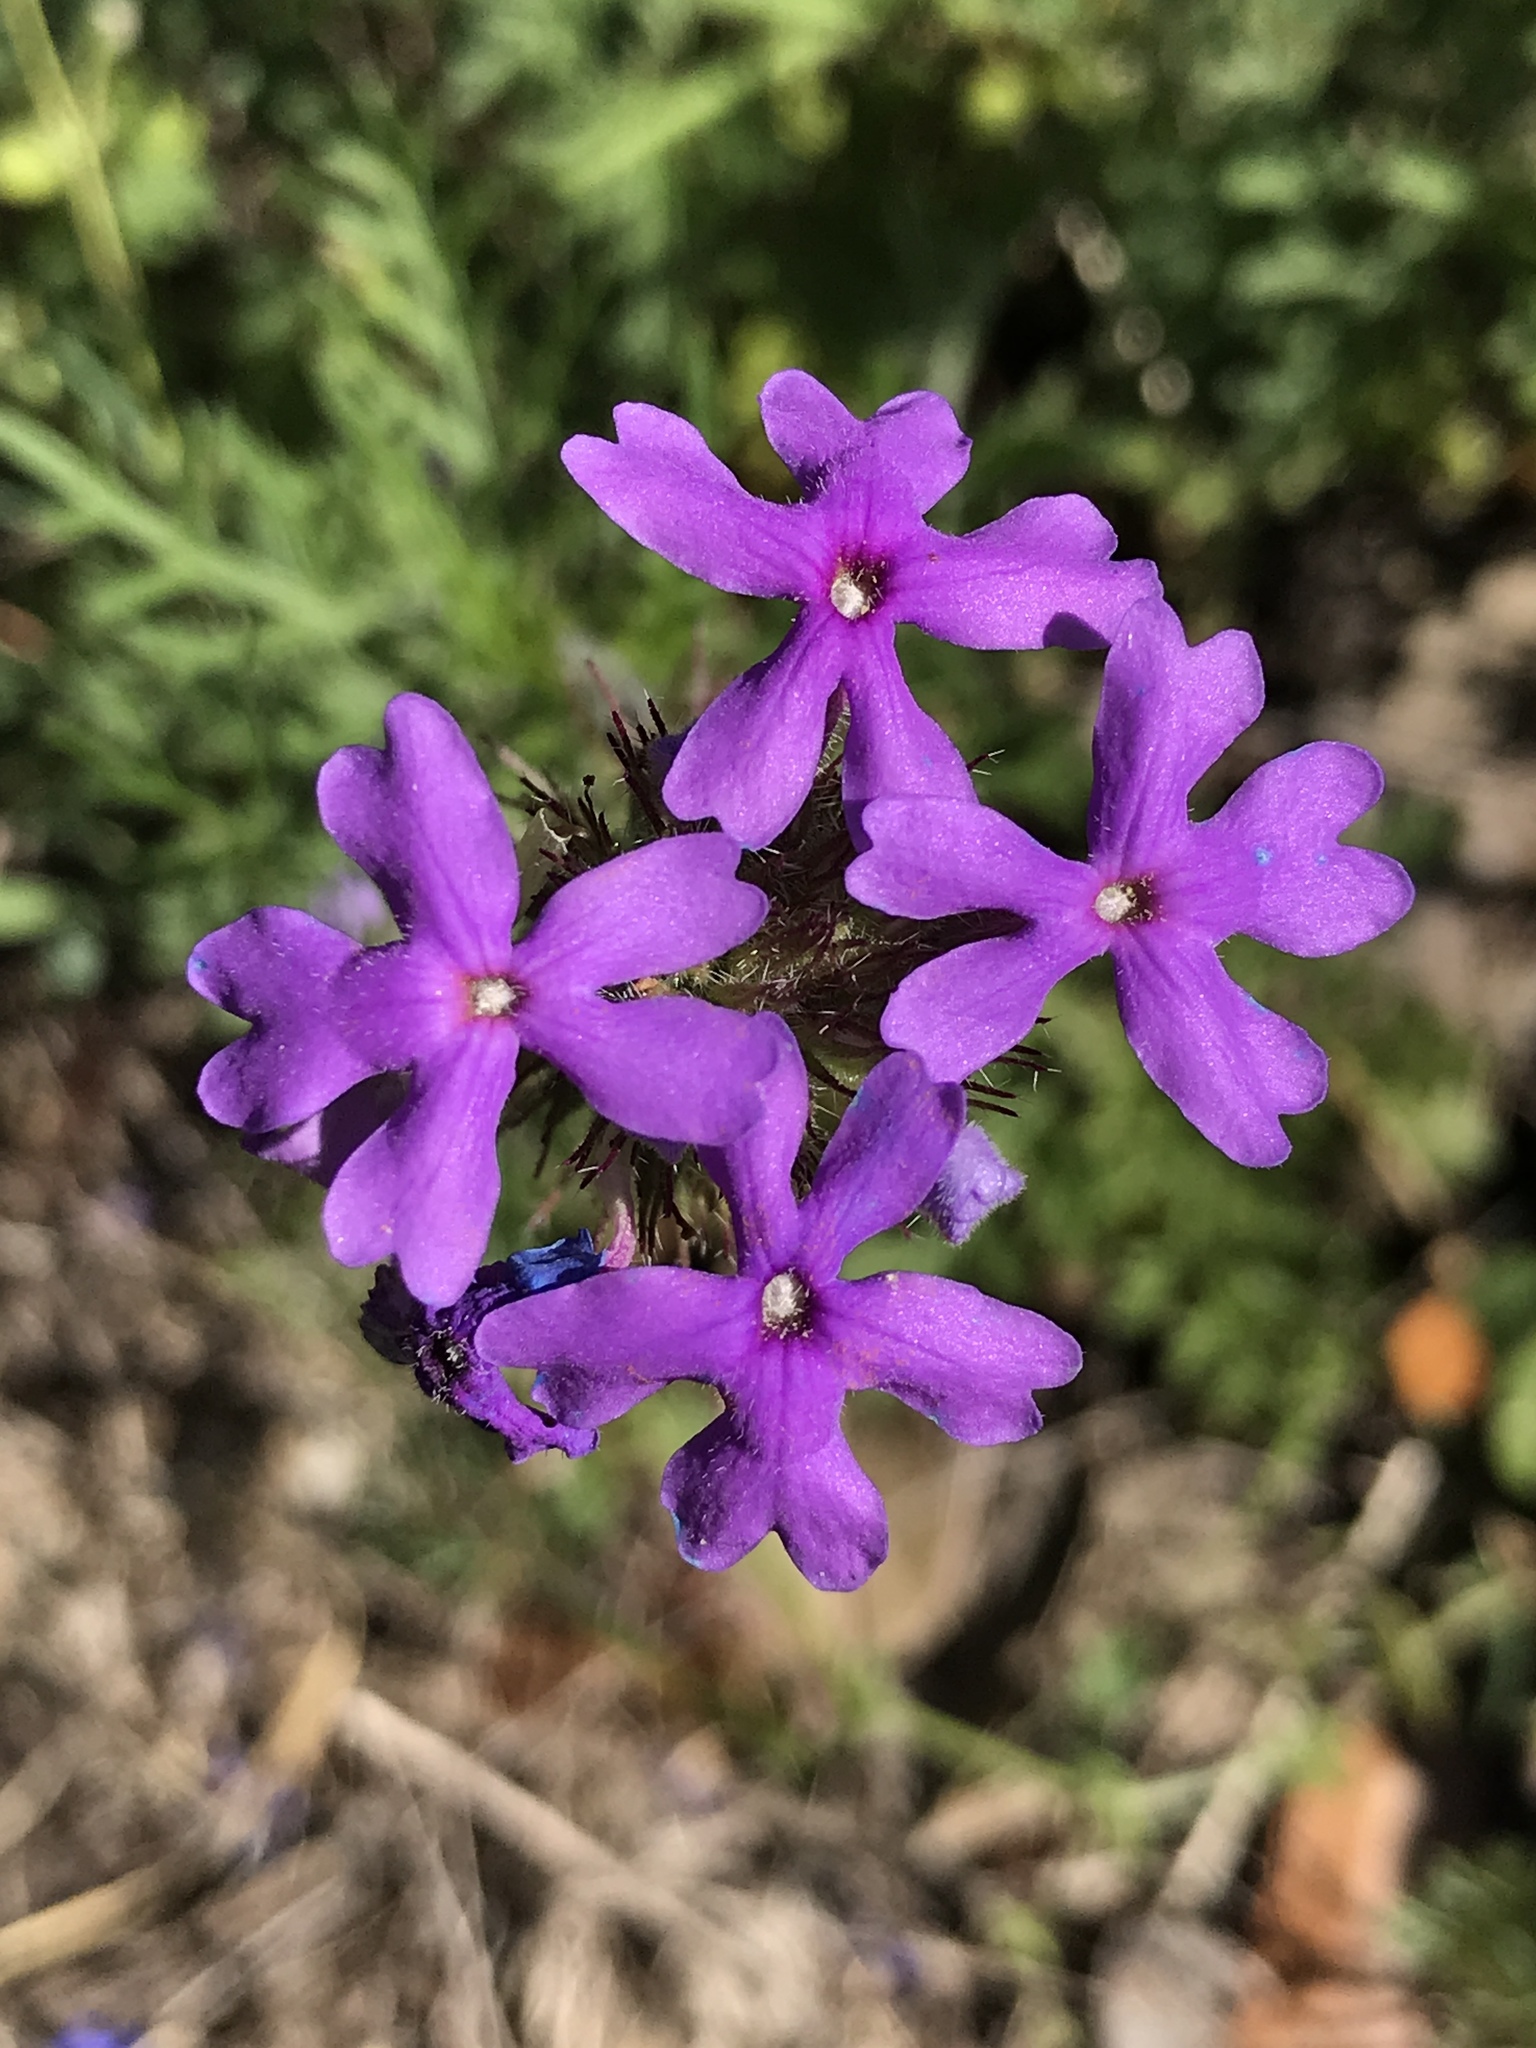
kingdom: Plantae
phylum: Tracheophyta
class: Magnoliopsida
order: Lamiales
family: Verbenaceae
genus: Verbena
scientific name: Verbena bipinnatifida
